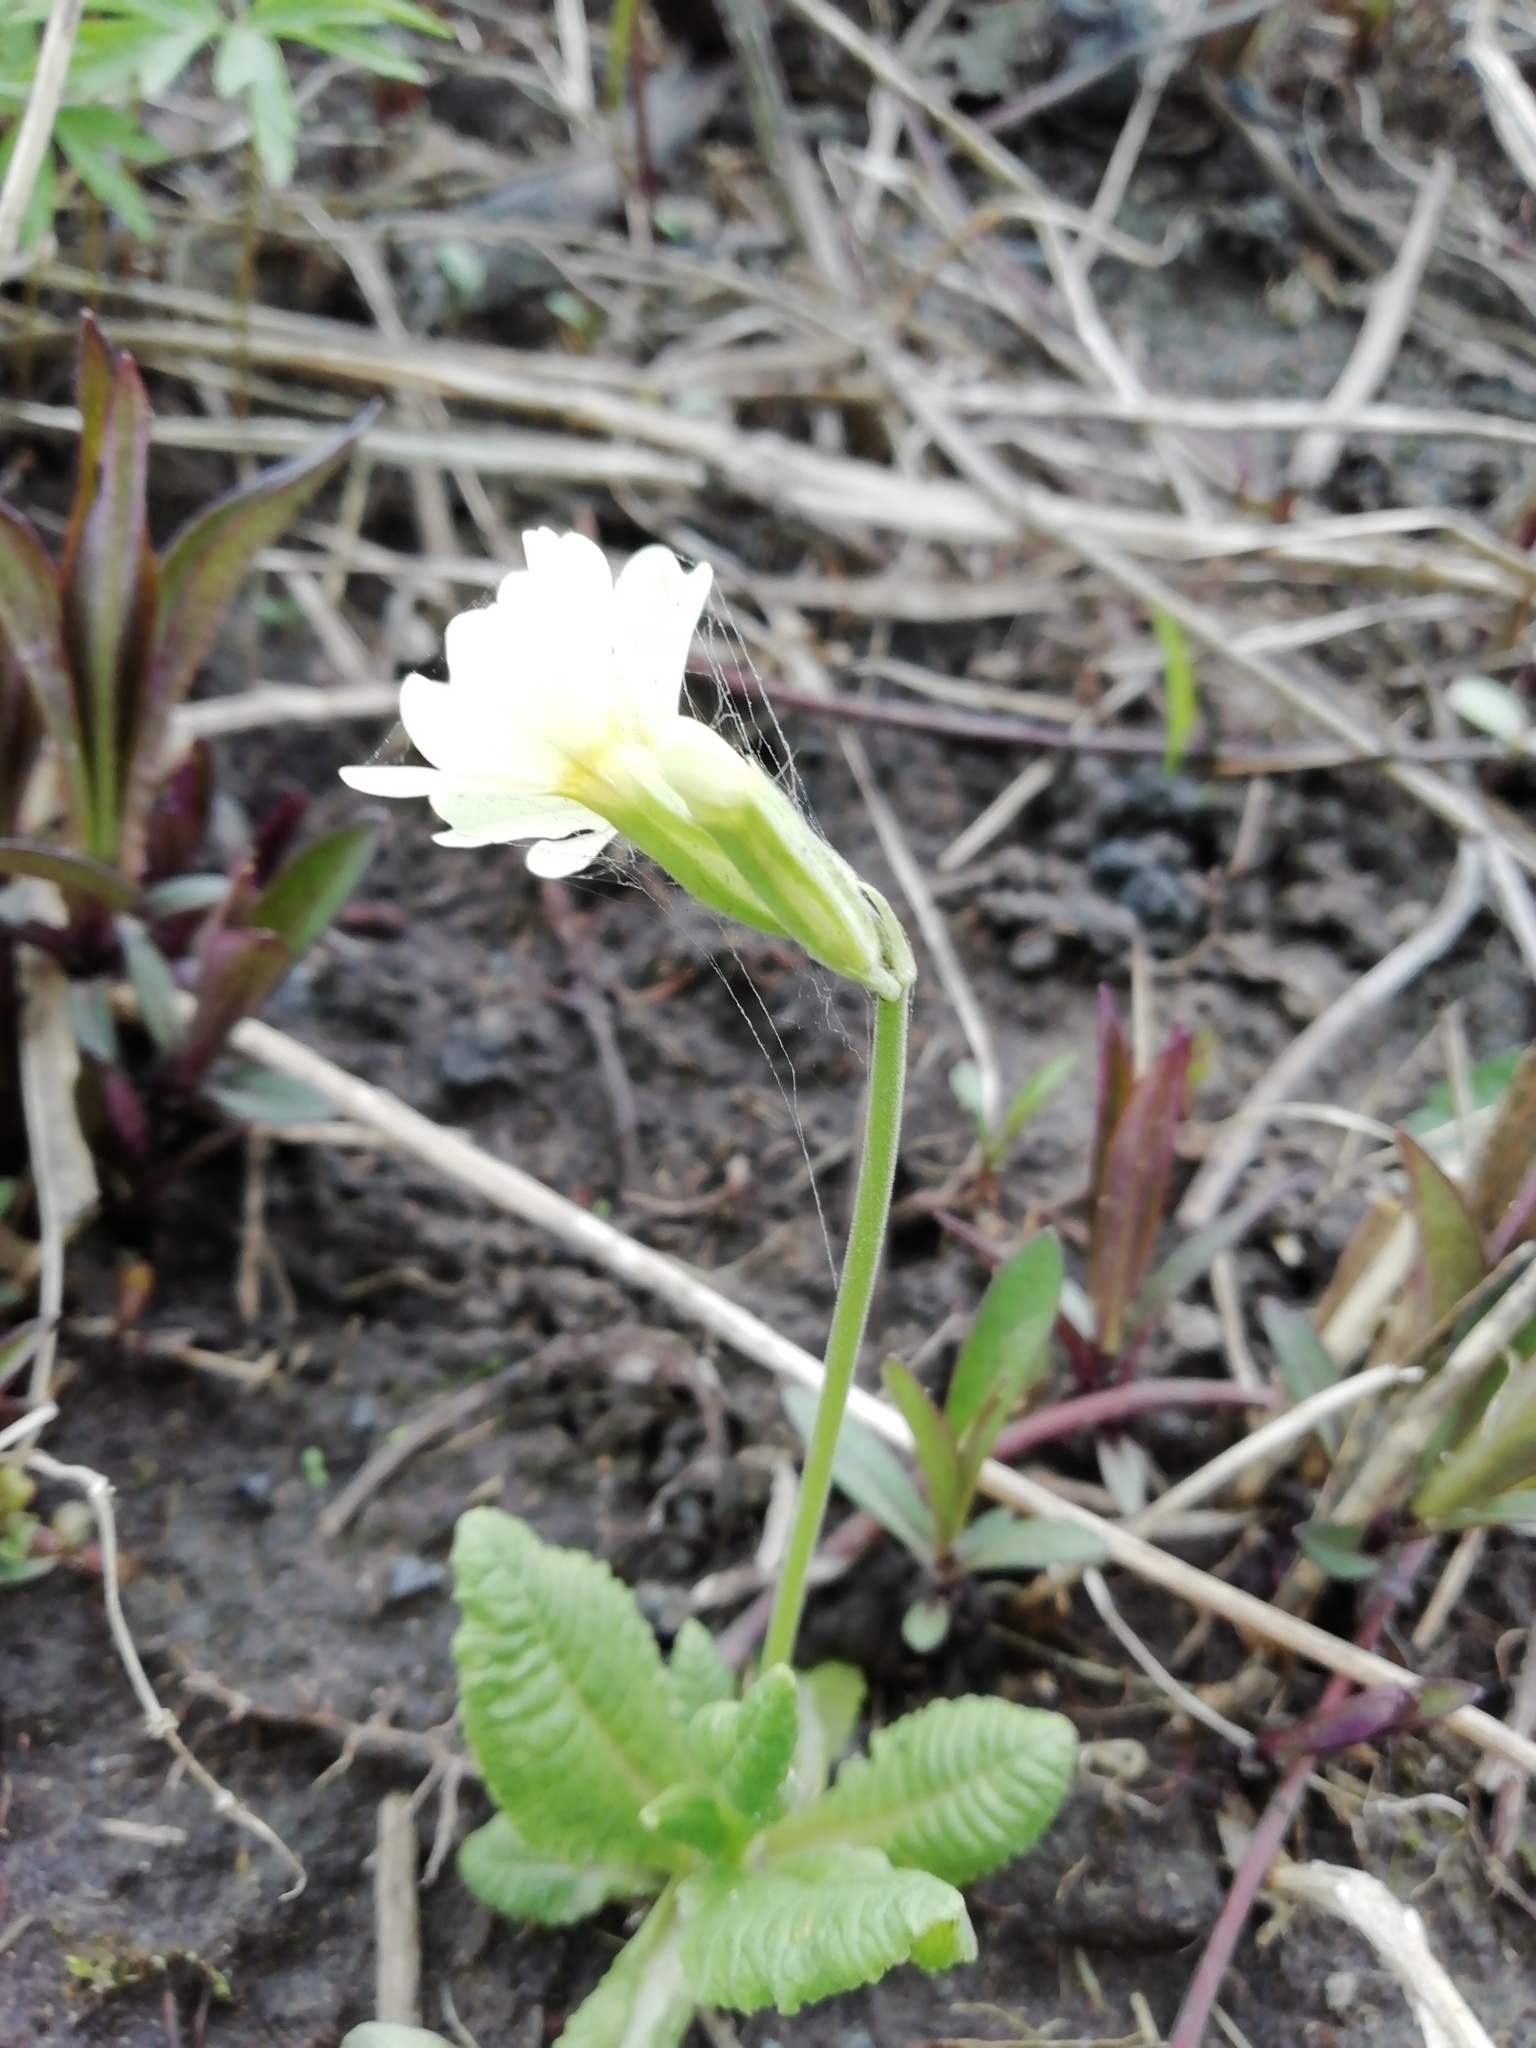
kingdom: Plantae
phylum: Tracheophyta
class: Magnoliopsida
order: Ericales
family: Primulaceae
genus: Primula
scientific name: Primula elatior
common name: Oxlip
